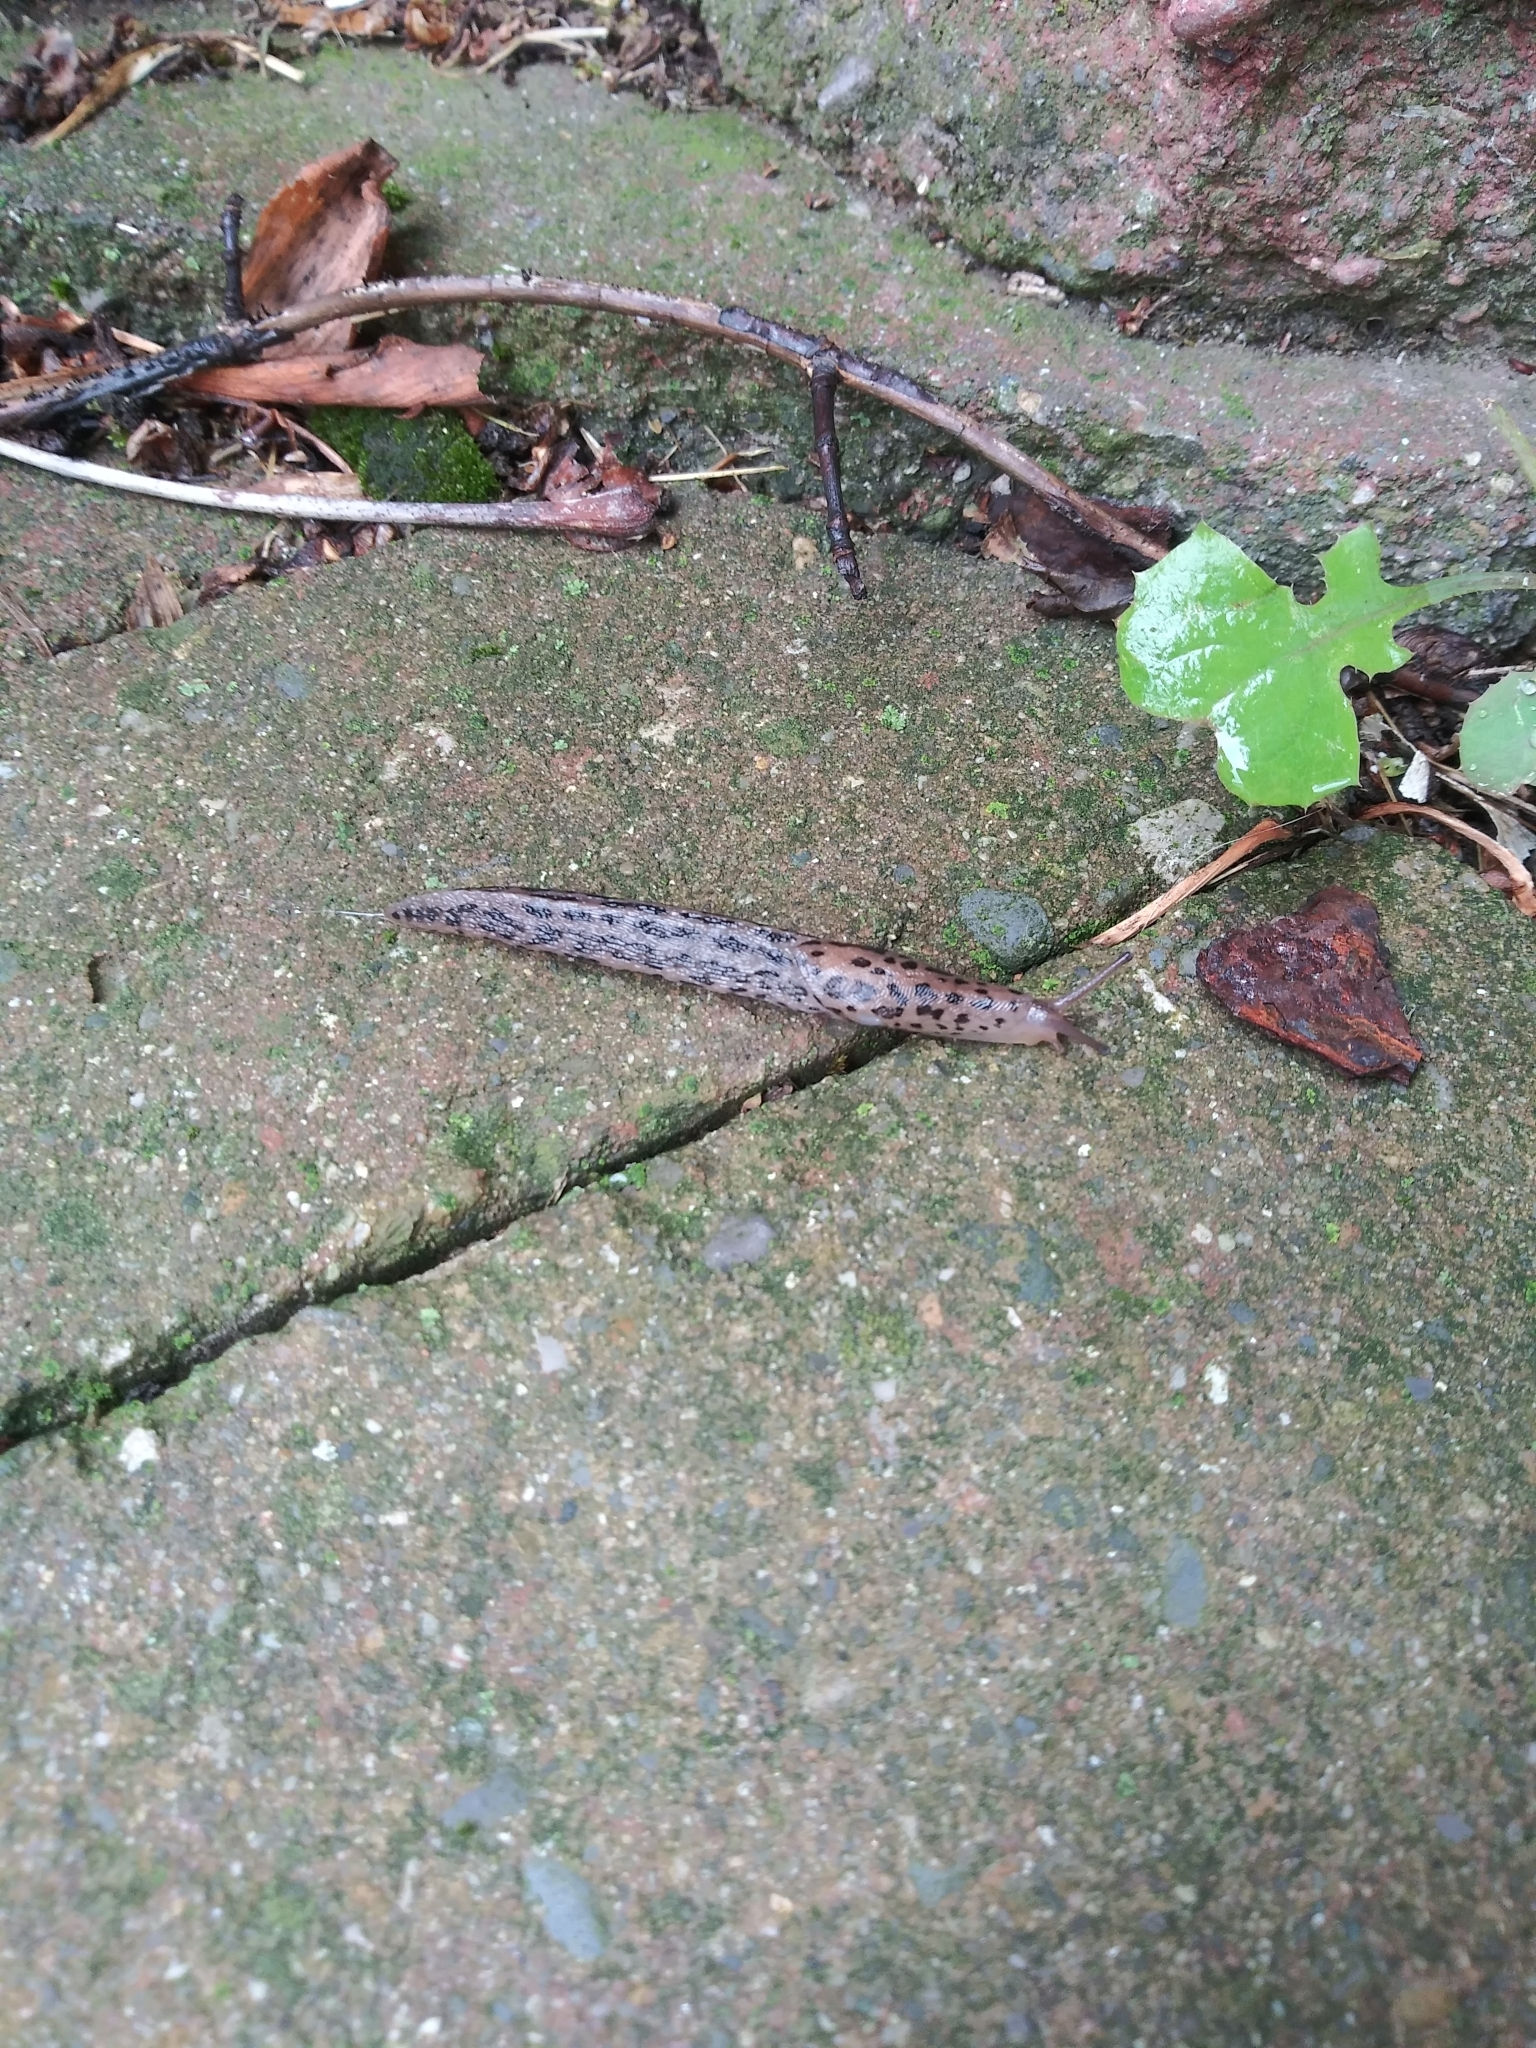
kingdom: Animalia
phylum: Mollusca
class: Gastropoda
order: Stylommatophora
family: Limacidae
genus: Limax
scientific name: Limax maximus
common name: Great grey slug
